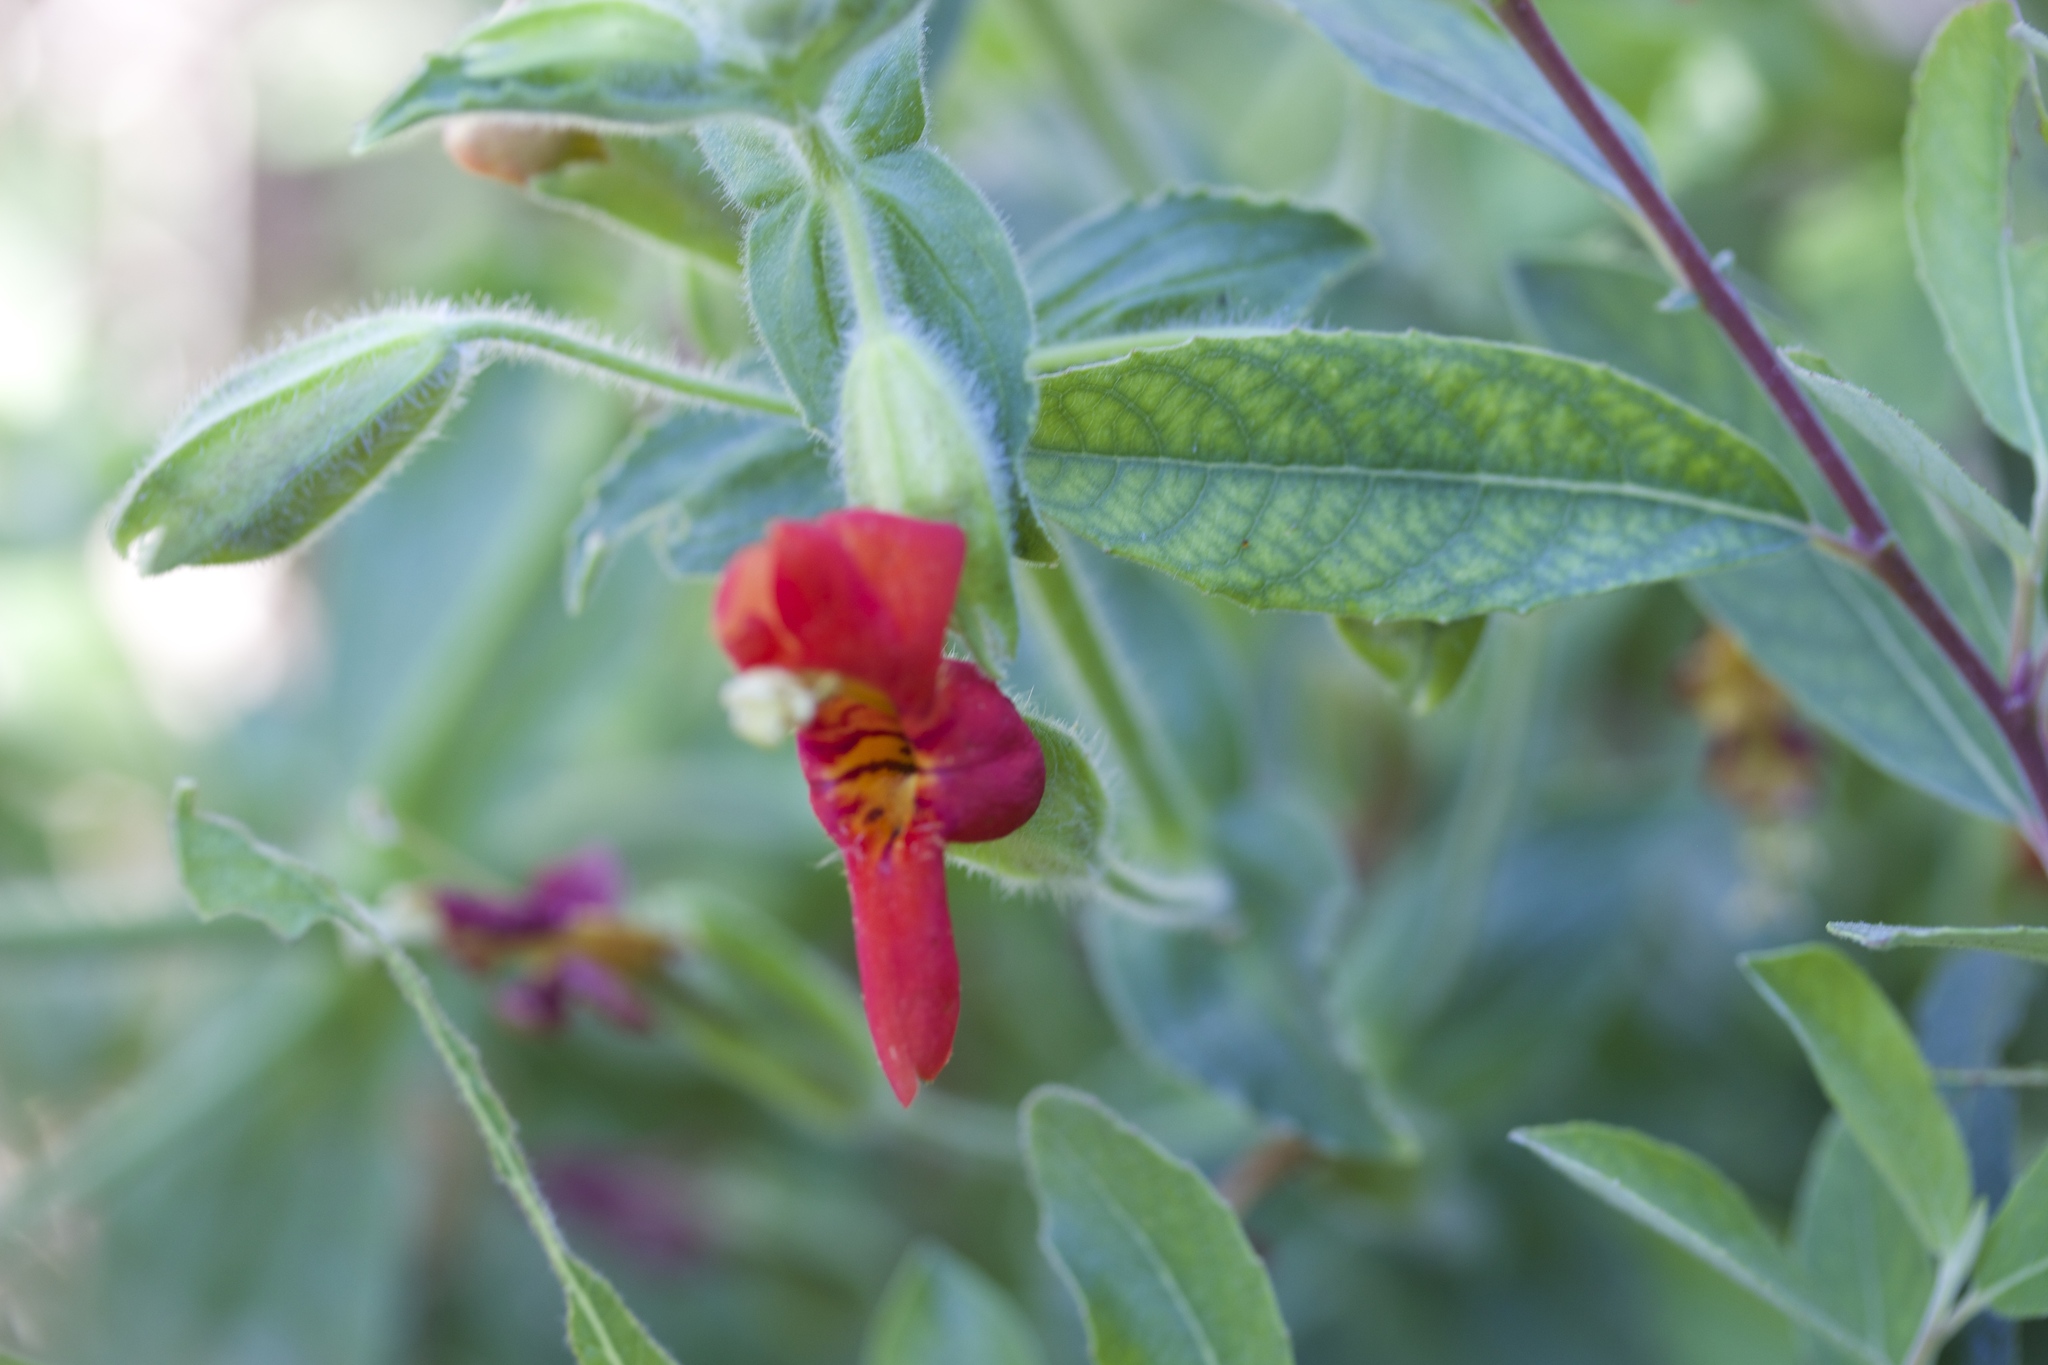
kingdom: Plantae
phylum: Tracheophyta
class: Magnoliopsida
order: Lamiales
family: Phrymaceae
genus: Erythranthe
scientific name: Erythranthe cardinalis
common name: Scarlet monkey-flower
